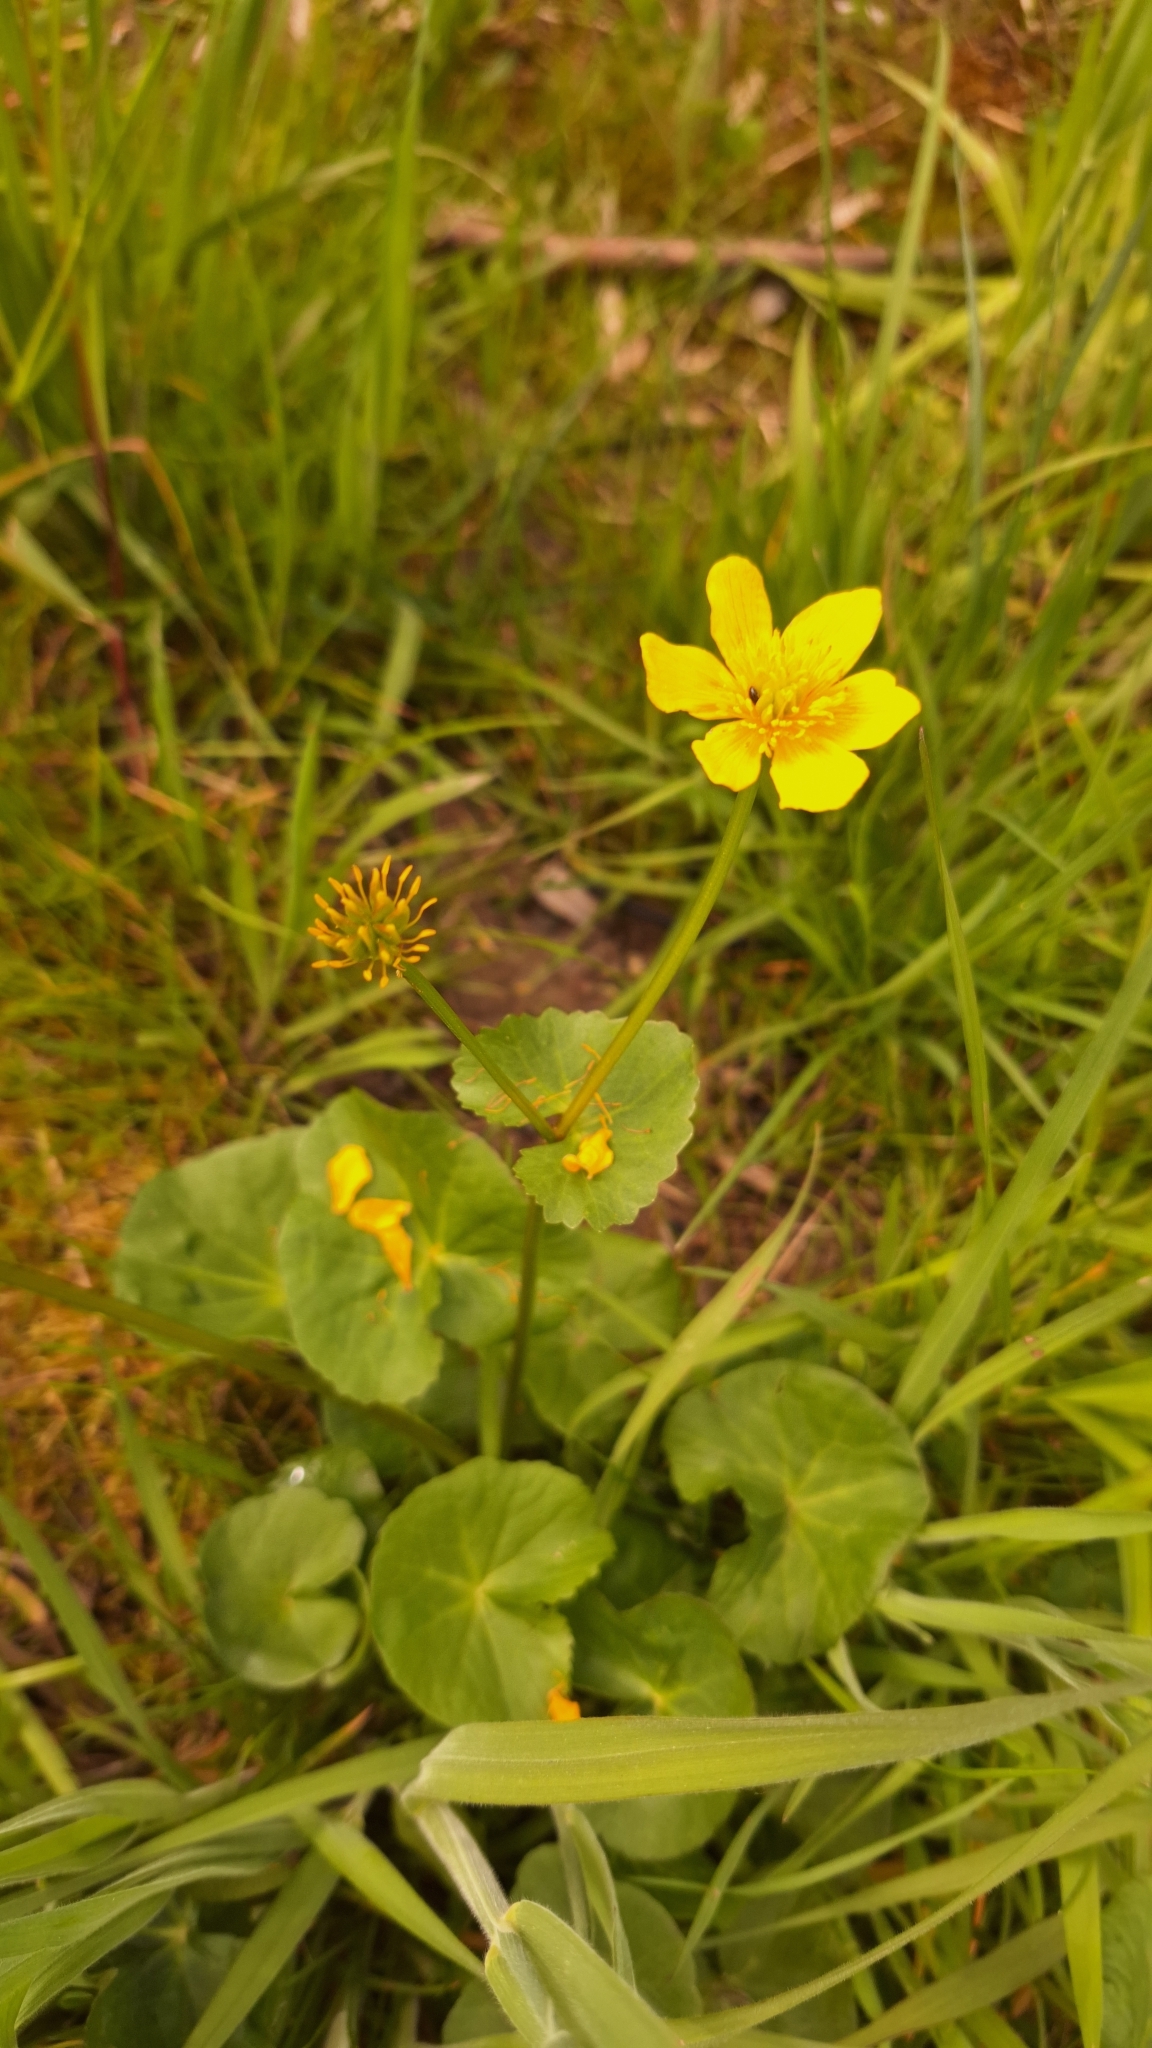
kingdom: Plantae
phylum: Tracheophyta
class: Magnoliopsida
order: Ranunculales
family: Ranunculaceae
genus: Caltha
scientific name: Caltha palustris
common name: Marsh marigold
